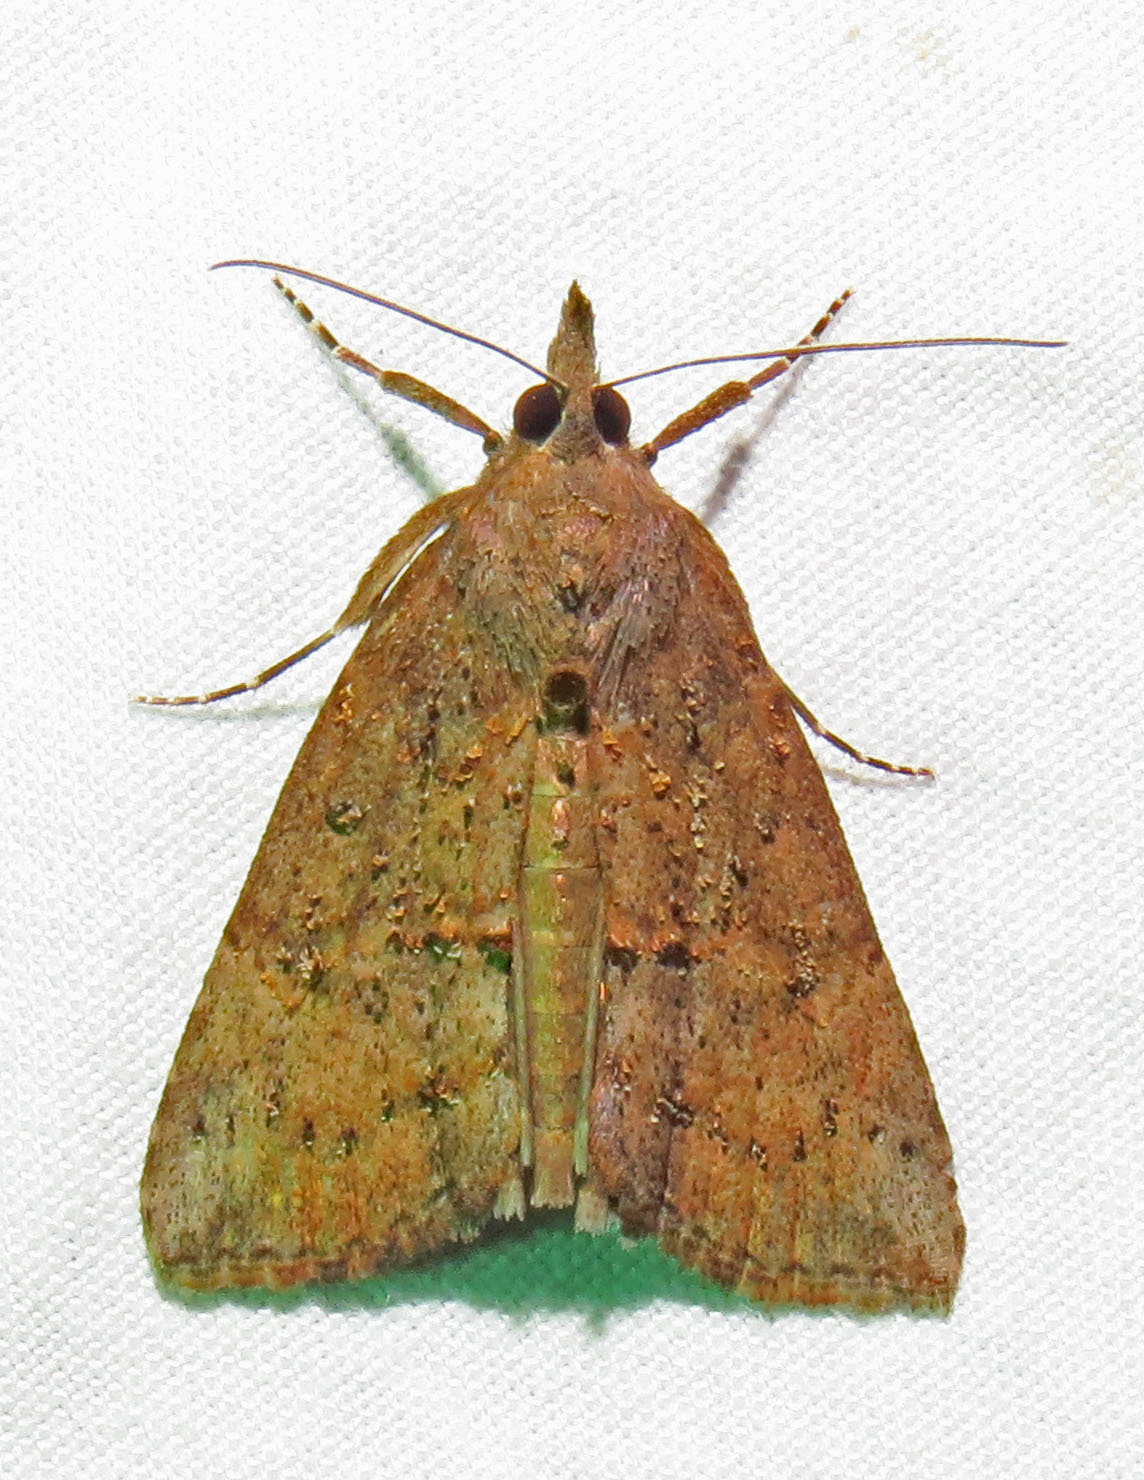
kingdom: Animalia
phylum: Arthropoda
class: Insecta
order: Lepidoptera
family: Erebidae
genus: Hypena
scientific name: Hypena scabra
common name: Green cloverworm
